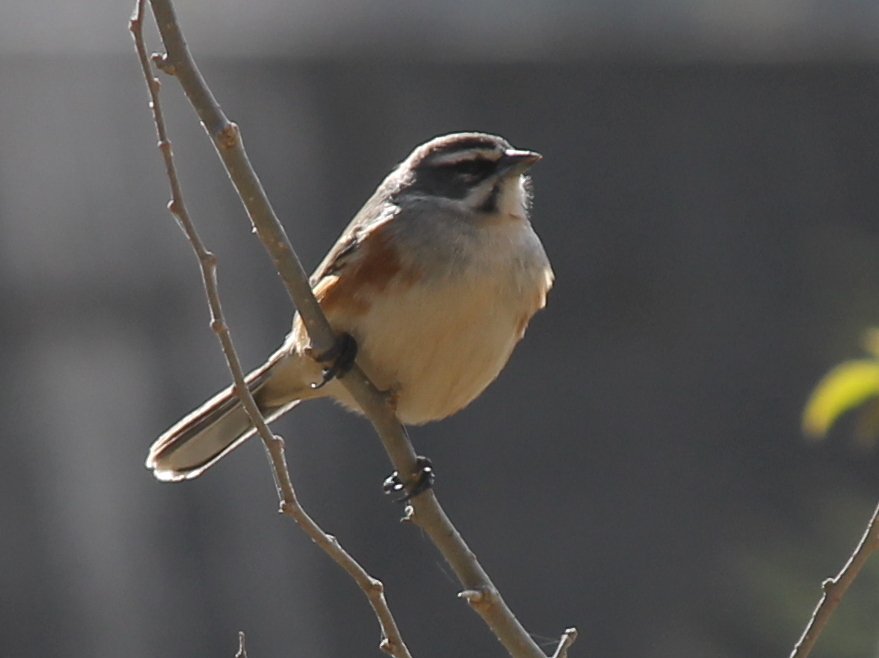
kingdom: Animalia
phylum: Chordata
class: Aves
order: Passeriformes
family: Thraupidae
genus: Poospizopsis
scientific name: Poospizopsis hypocondria
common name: Rufous-sided warbling-finch
